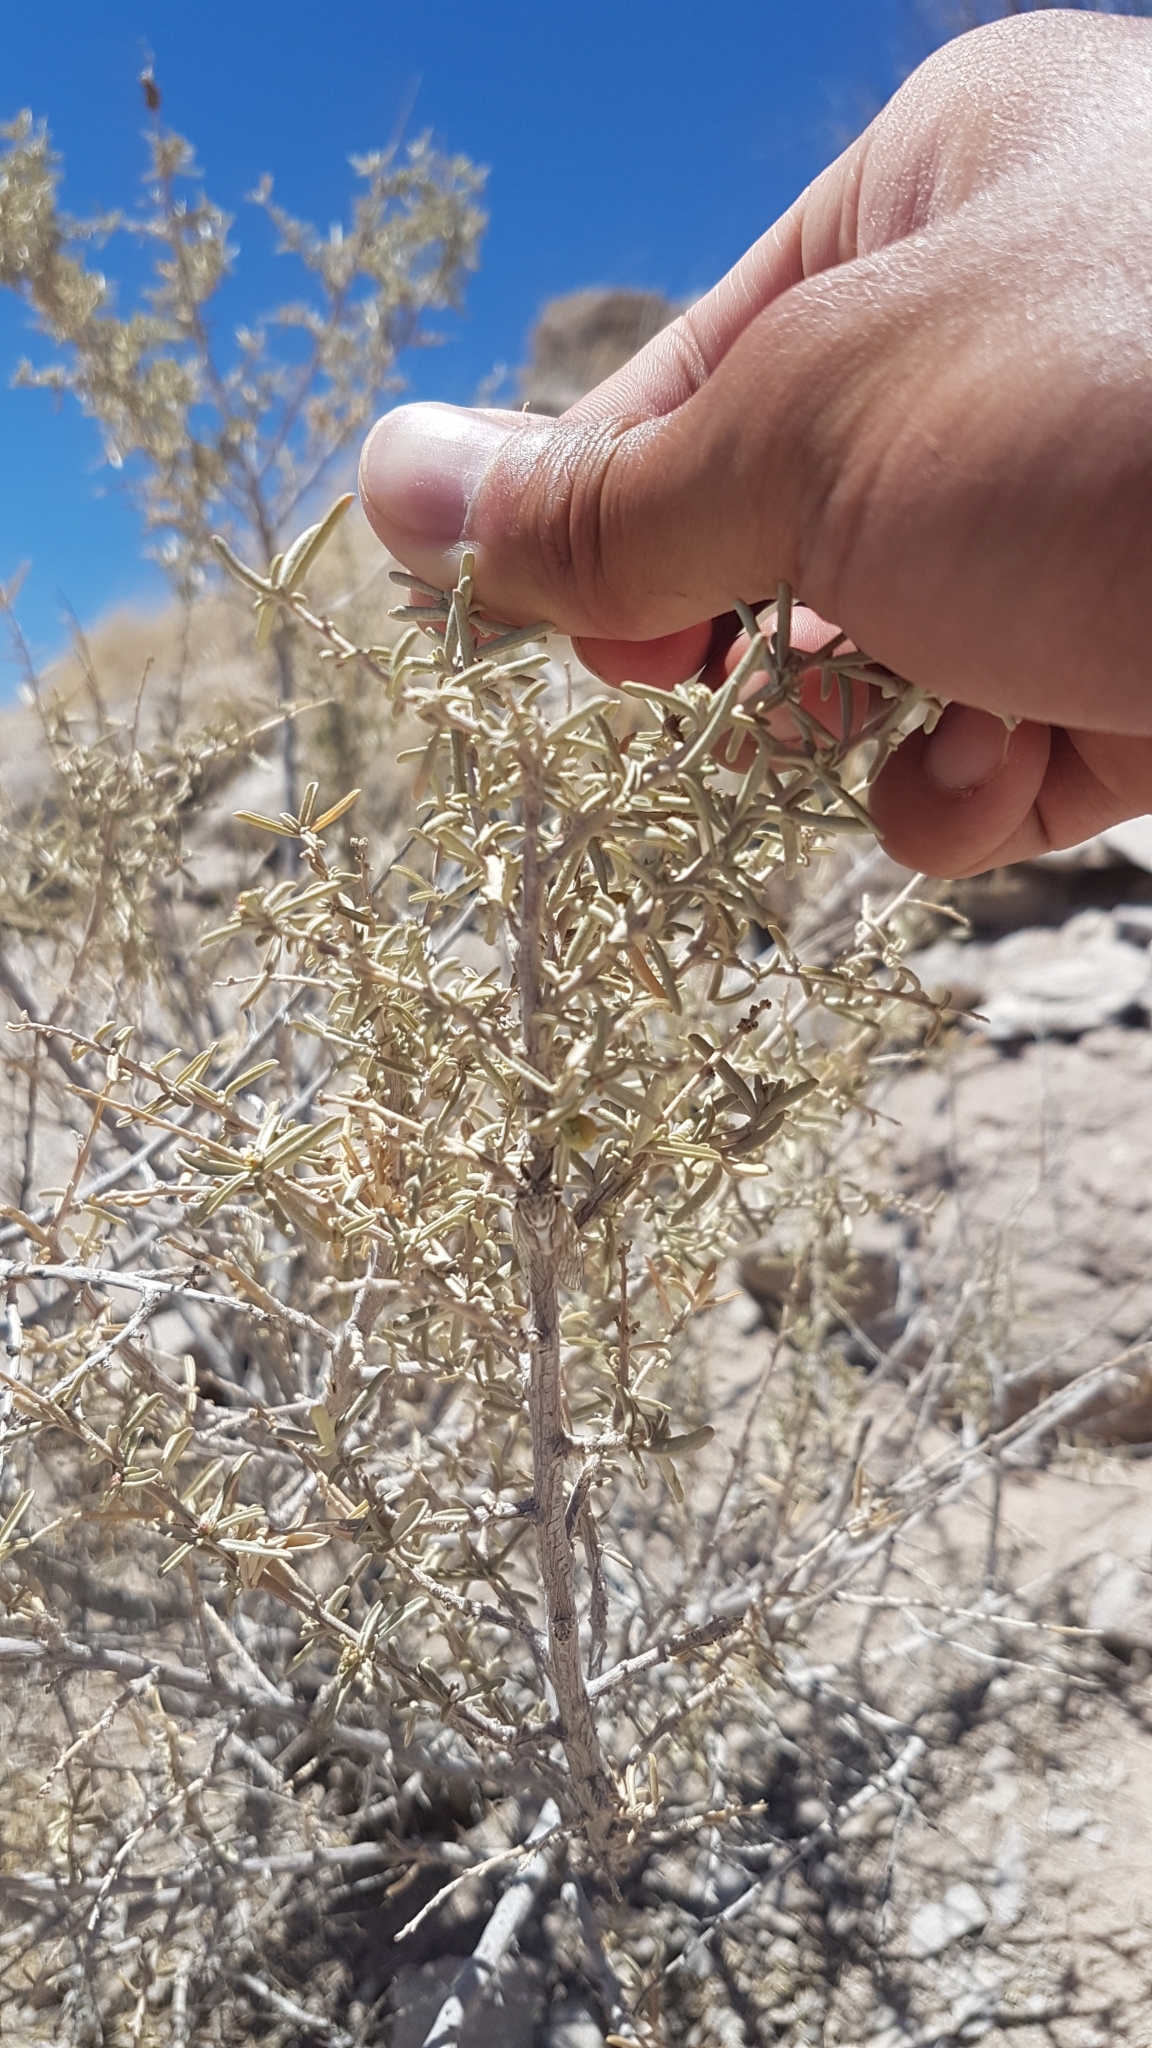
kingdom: Animalia
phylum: Arthropoda
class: Insecta
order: Hemiptera
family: Cicadidae
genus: Beameria
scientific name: Beameria venosa
